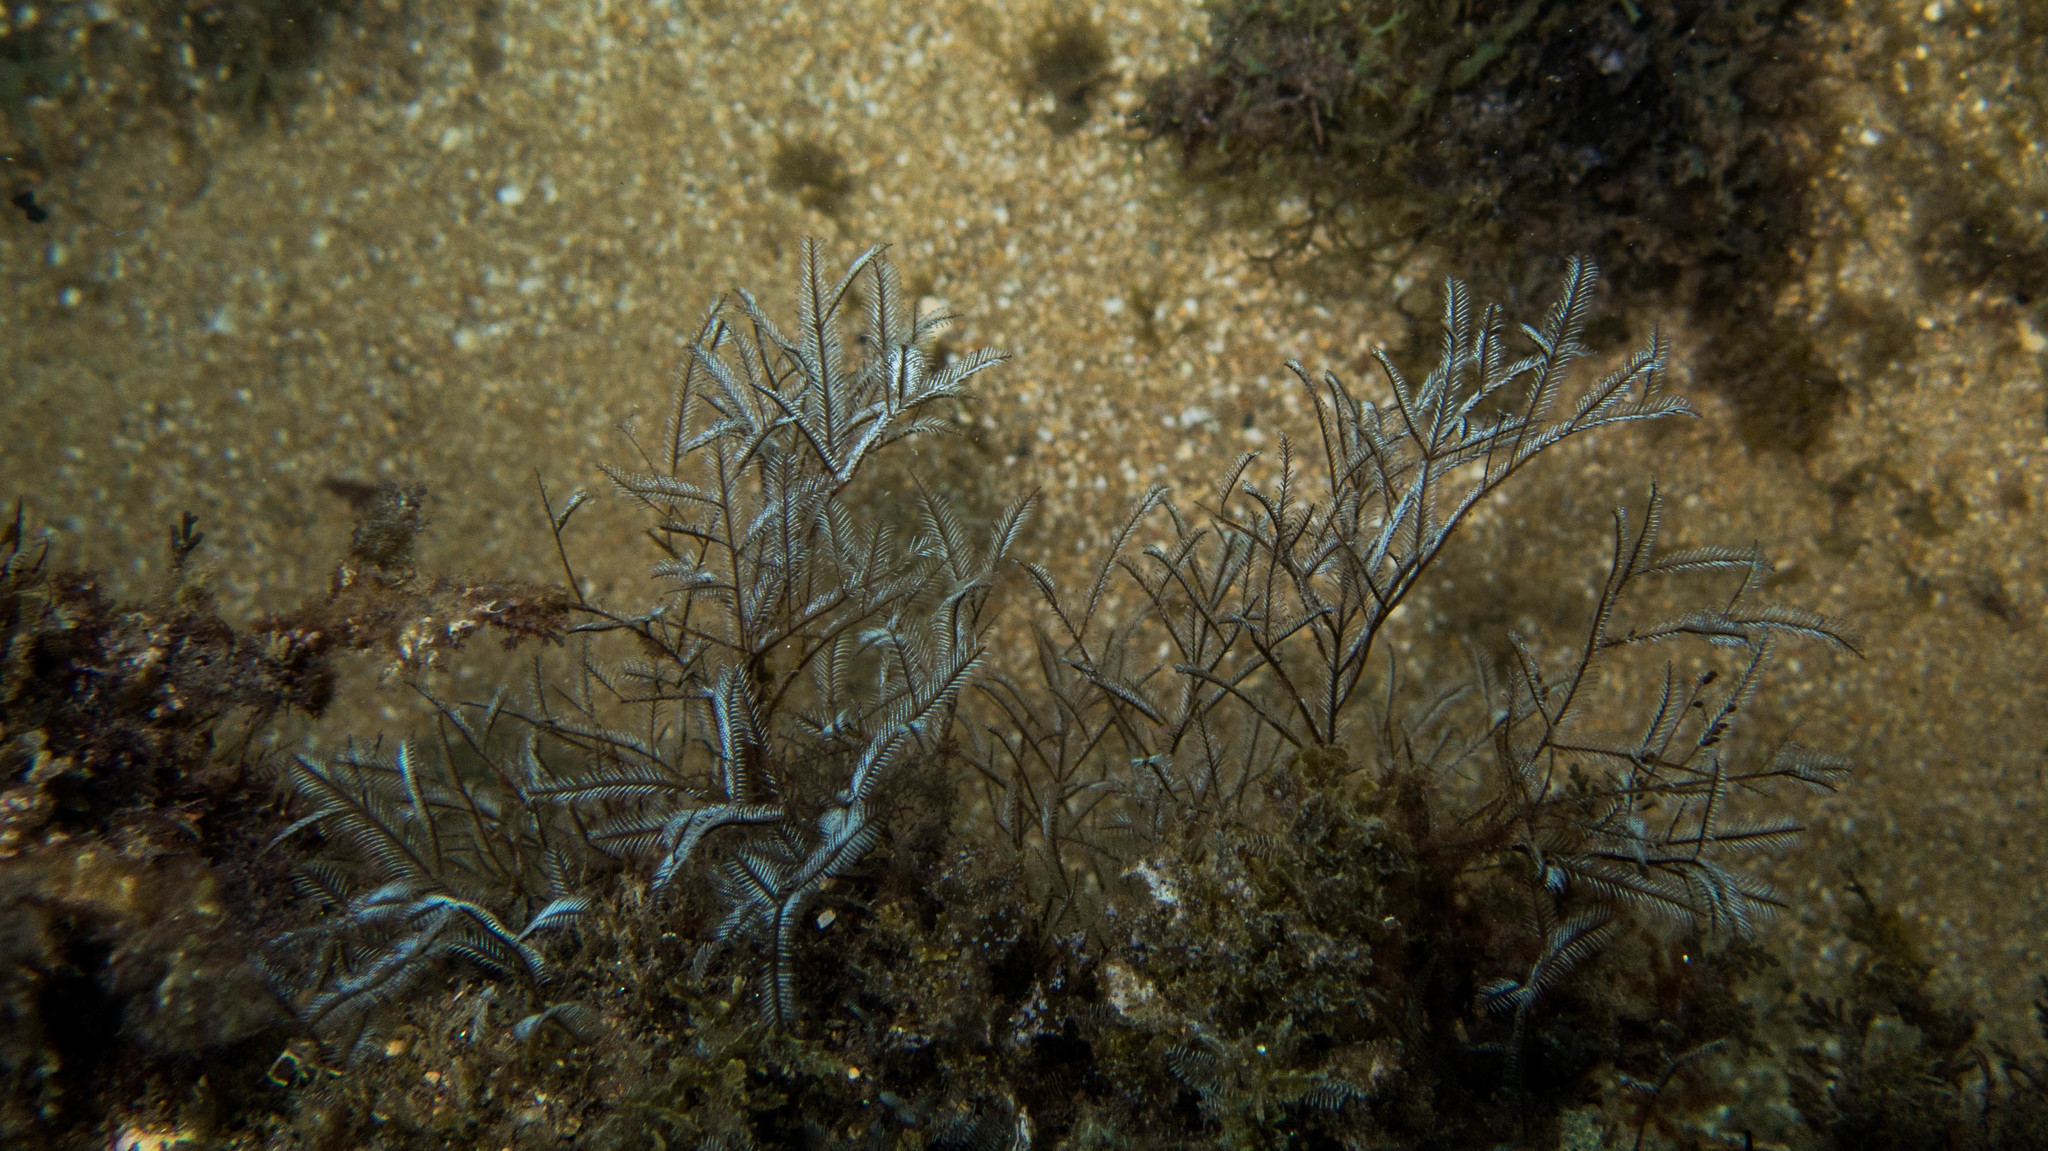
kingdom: Animalia
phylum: Cnidaria
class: Hydrozoa
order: Leptothecata
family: Aglaopheniidae
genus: Macrorhynchia
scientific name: Macrorhynchia philippina
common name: Stinging hydroid
